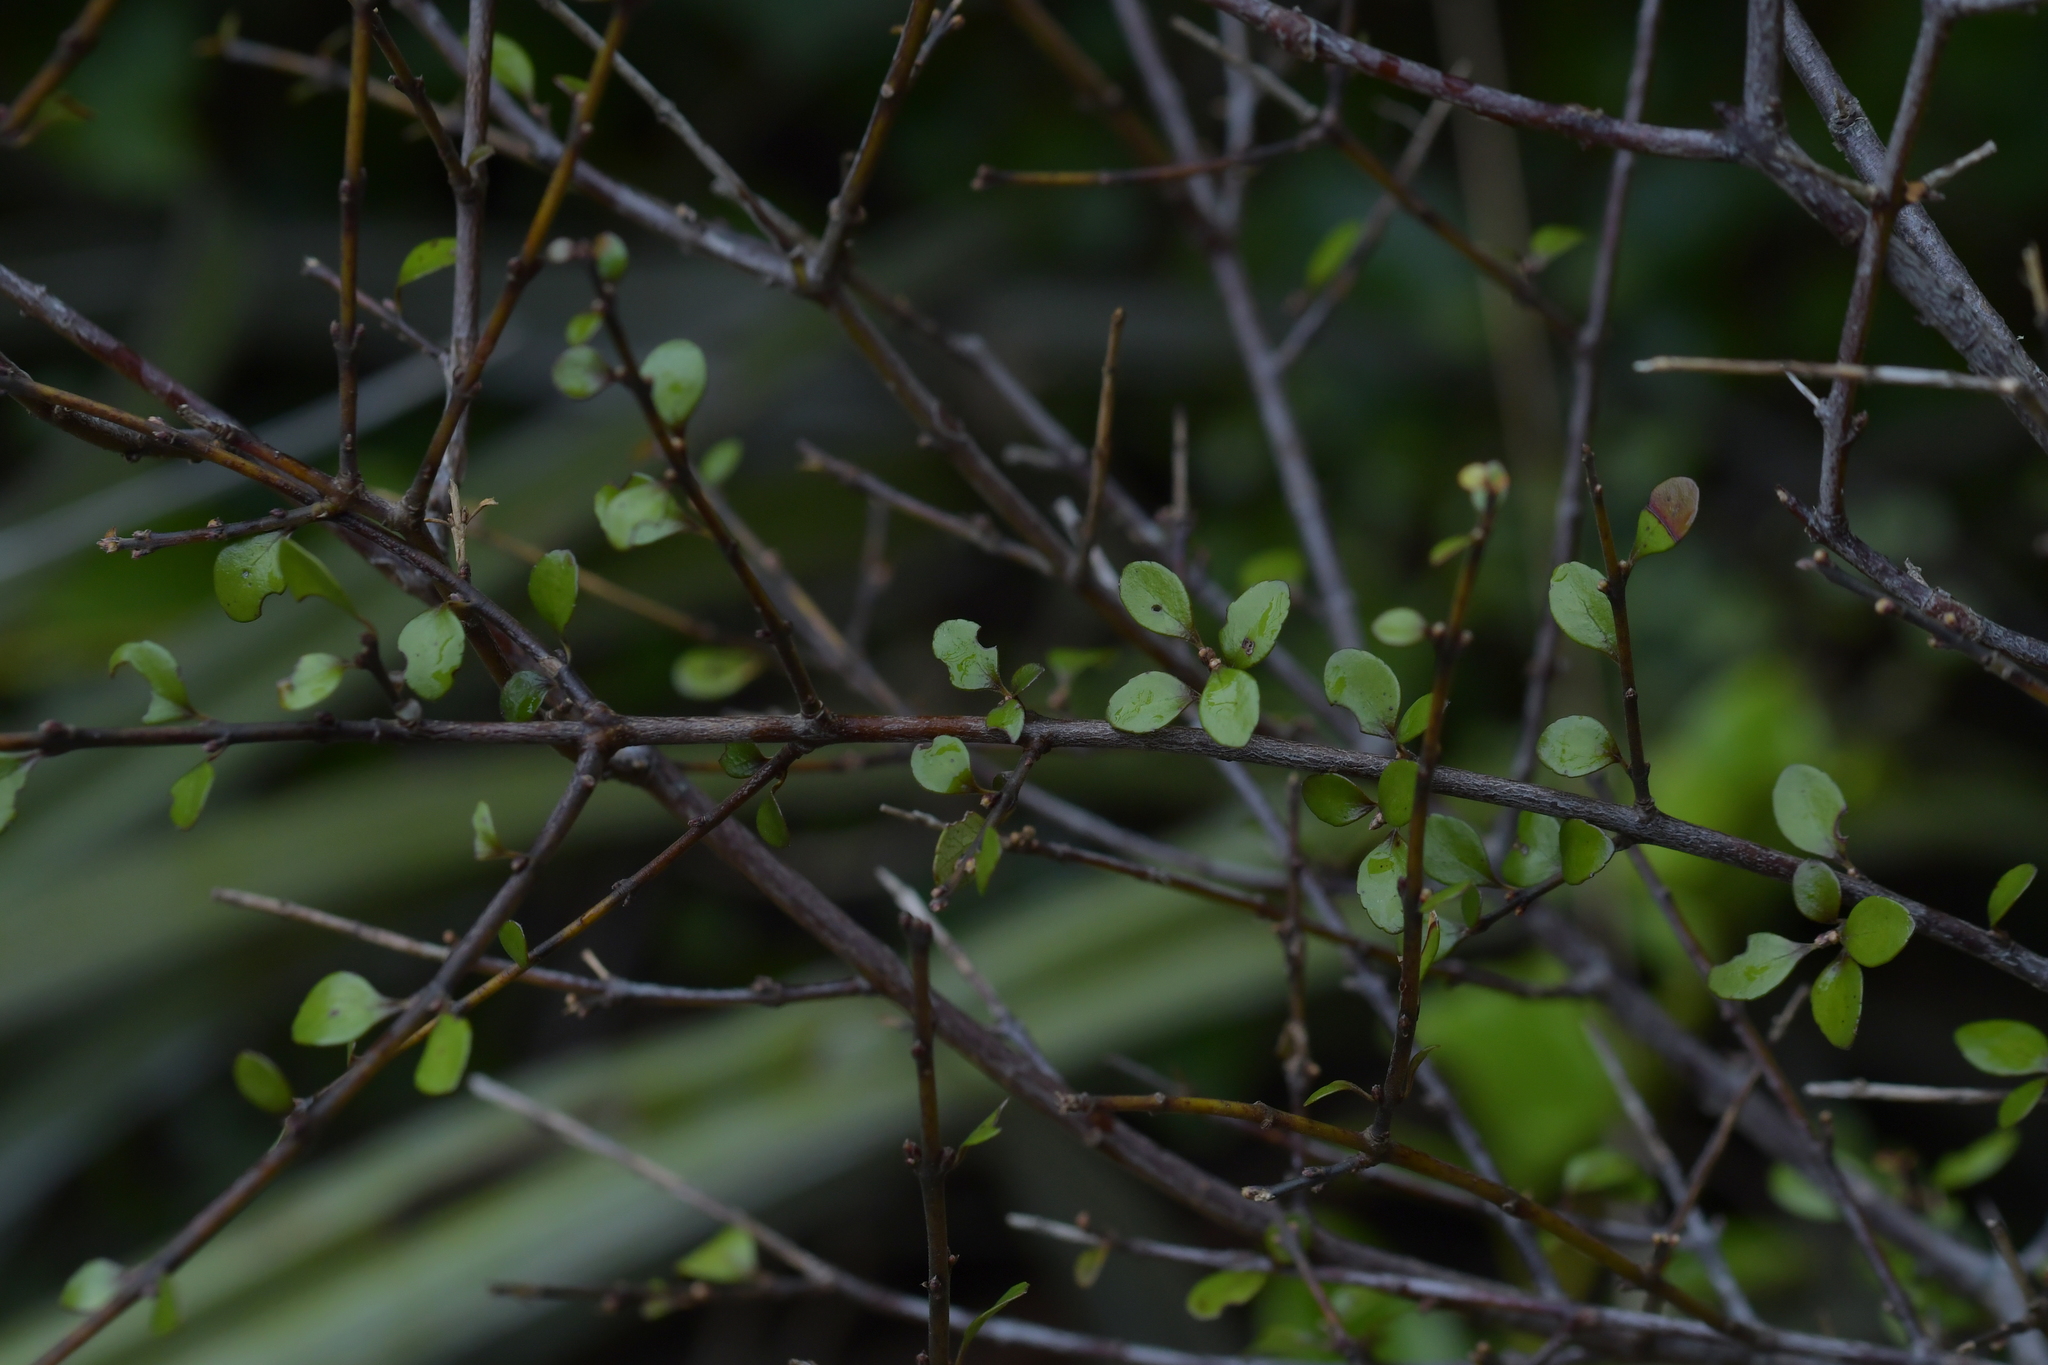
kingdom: Plantae
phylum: Tracheophyta
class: Magnoliopsida
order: Oxalidales
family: Elaeocarpaceae
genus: Aristotelia
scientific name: Aristotelia fruticosa
